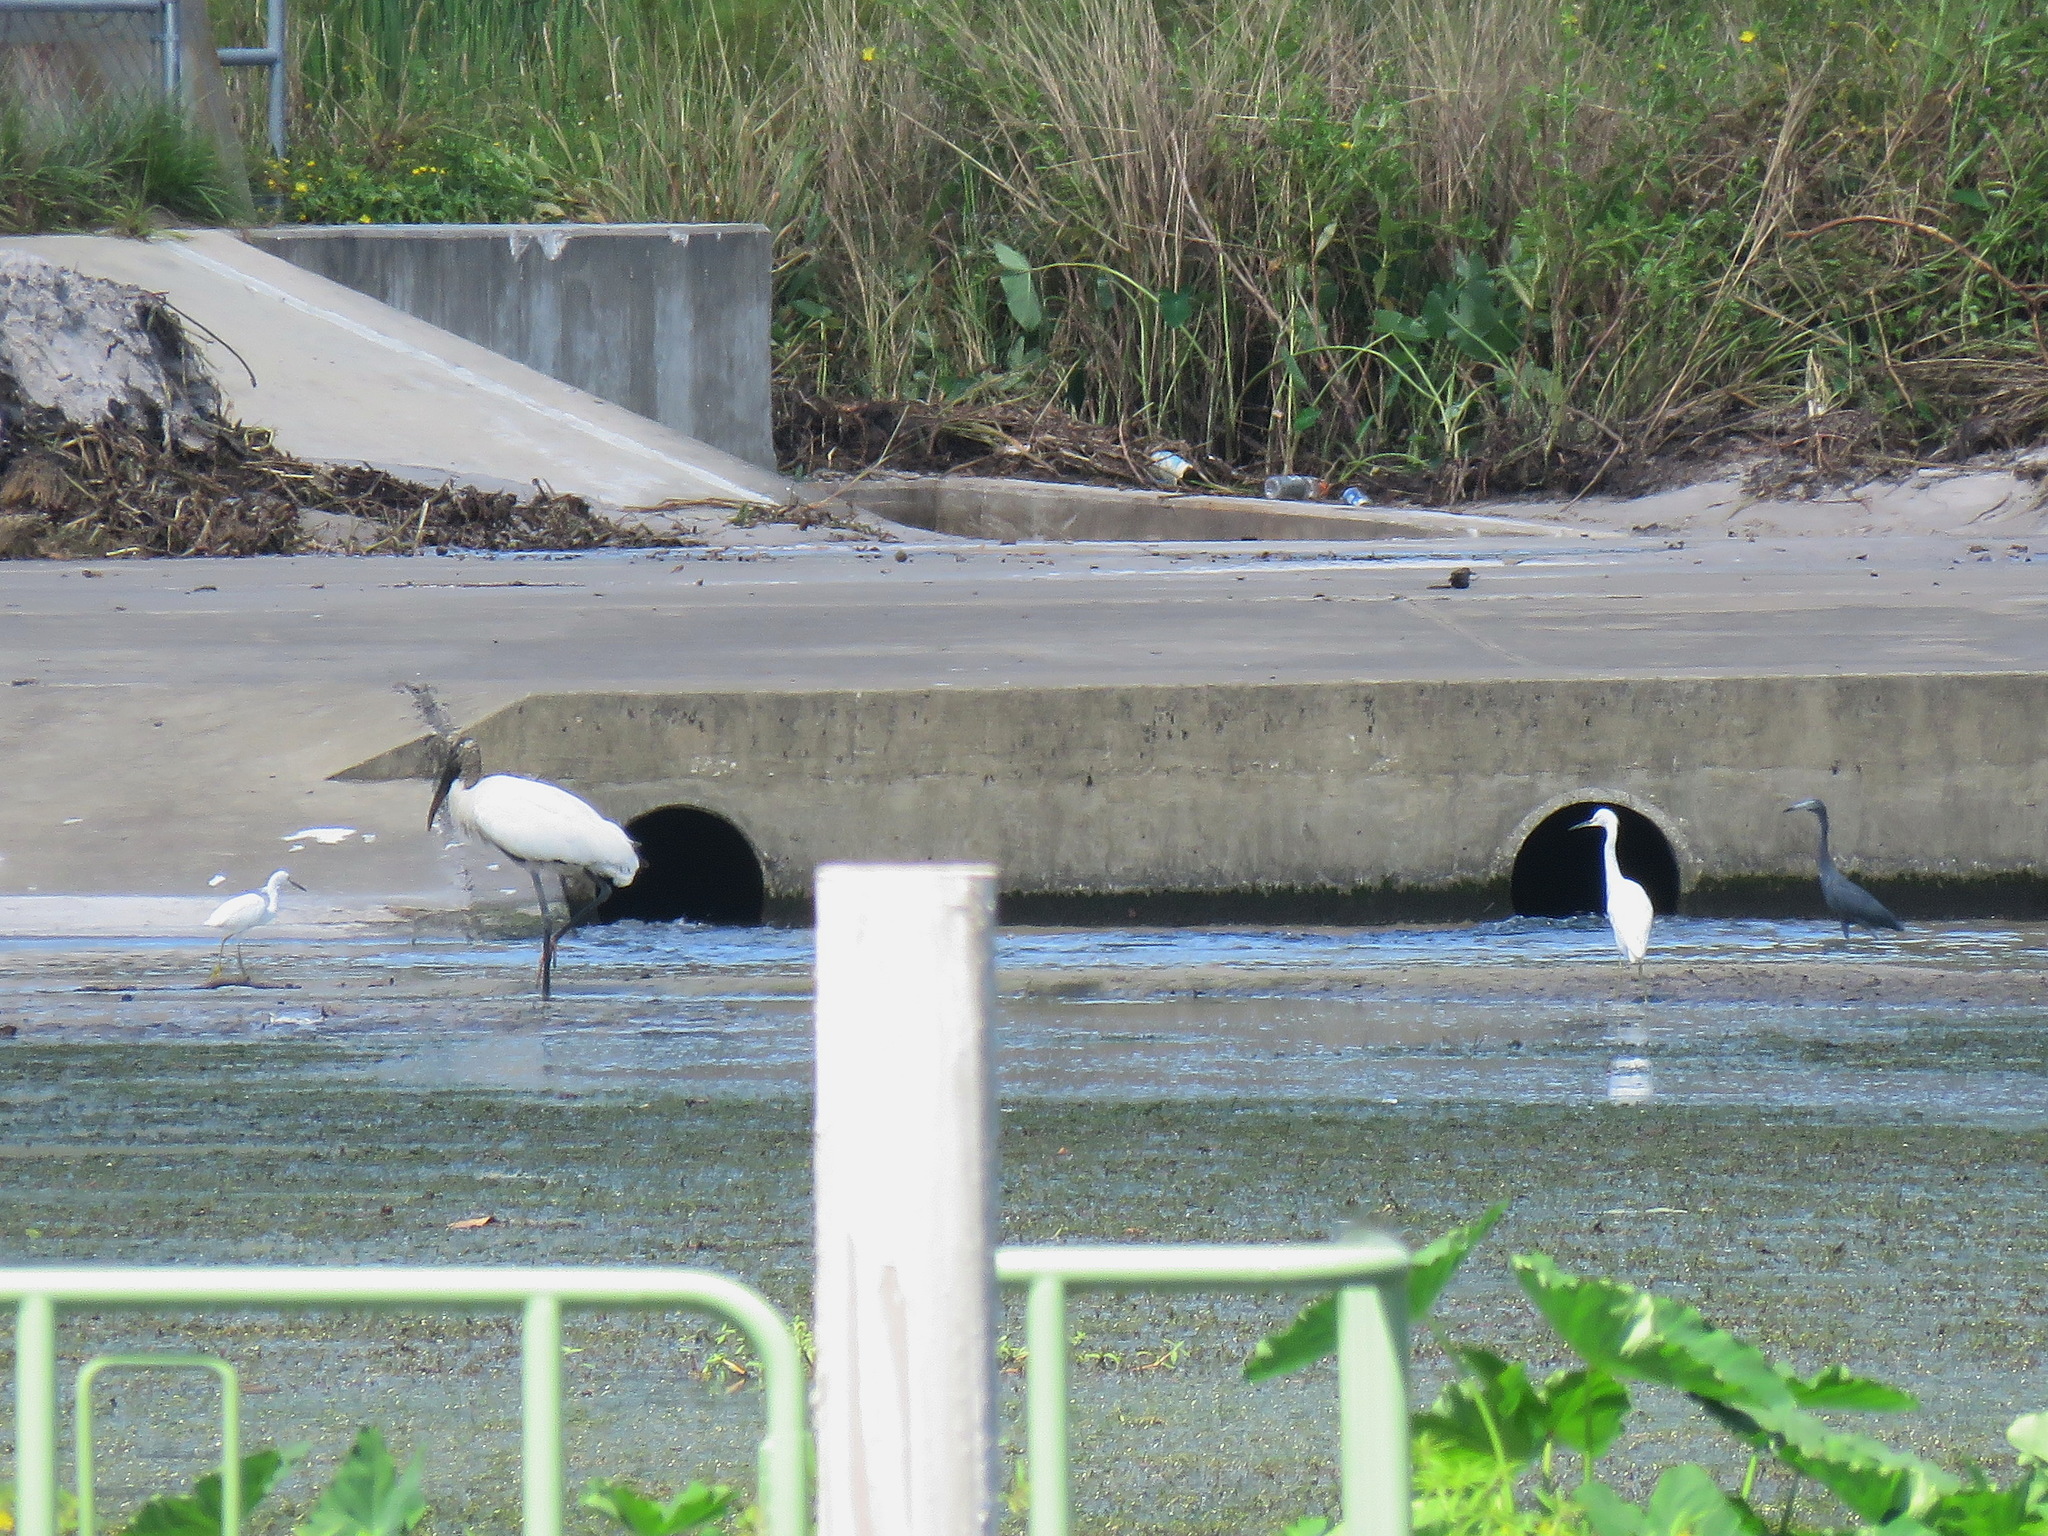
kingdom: Animalia
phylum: Chordata
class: Aves
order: Ciconiiformes
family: Ciconiidae
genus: Mycteria
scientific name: Mycteria americana
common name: Wood stork
